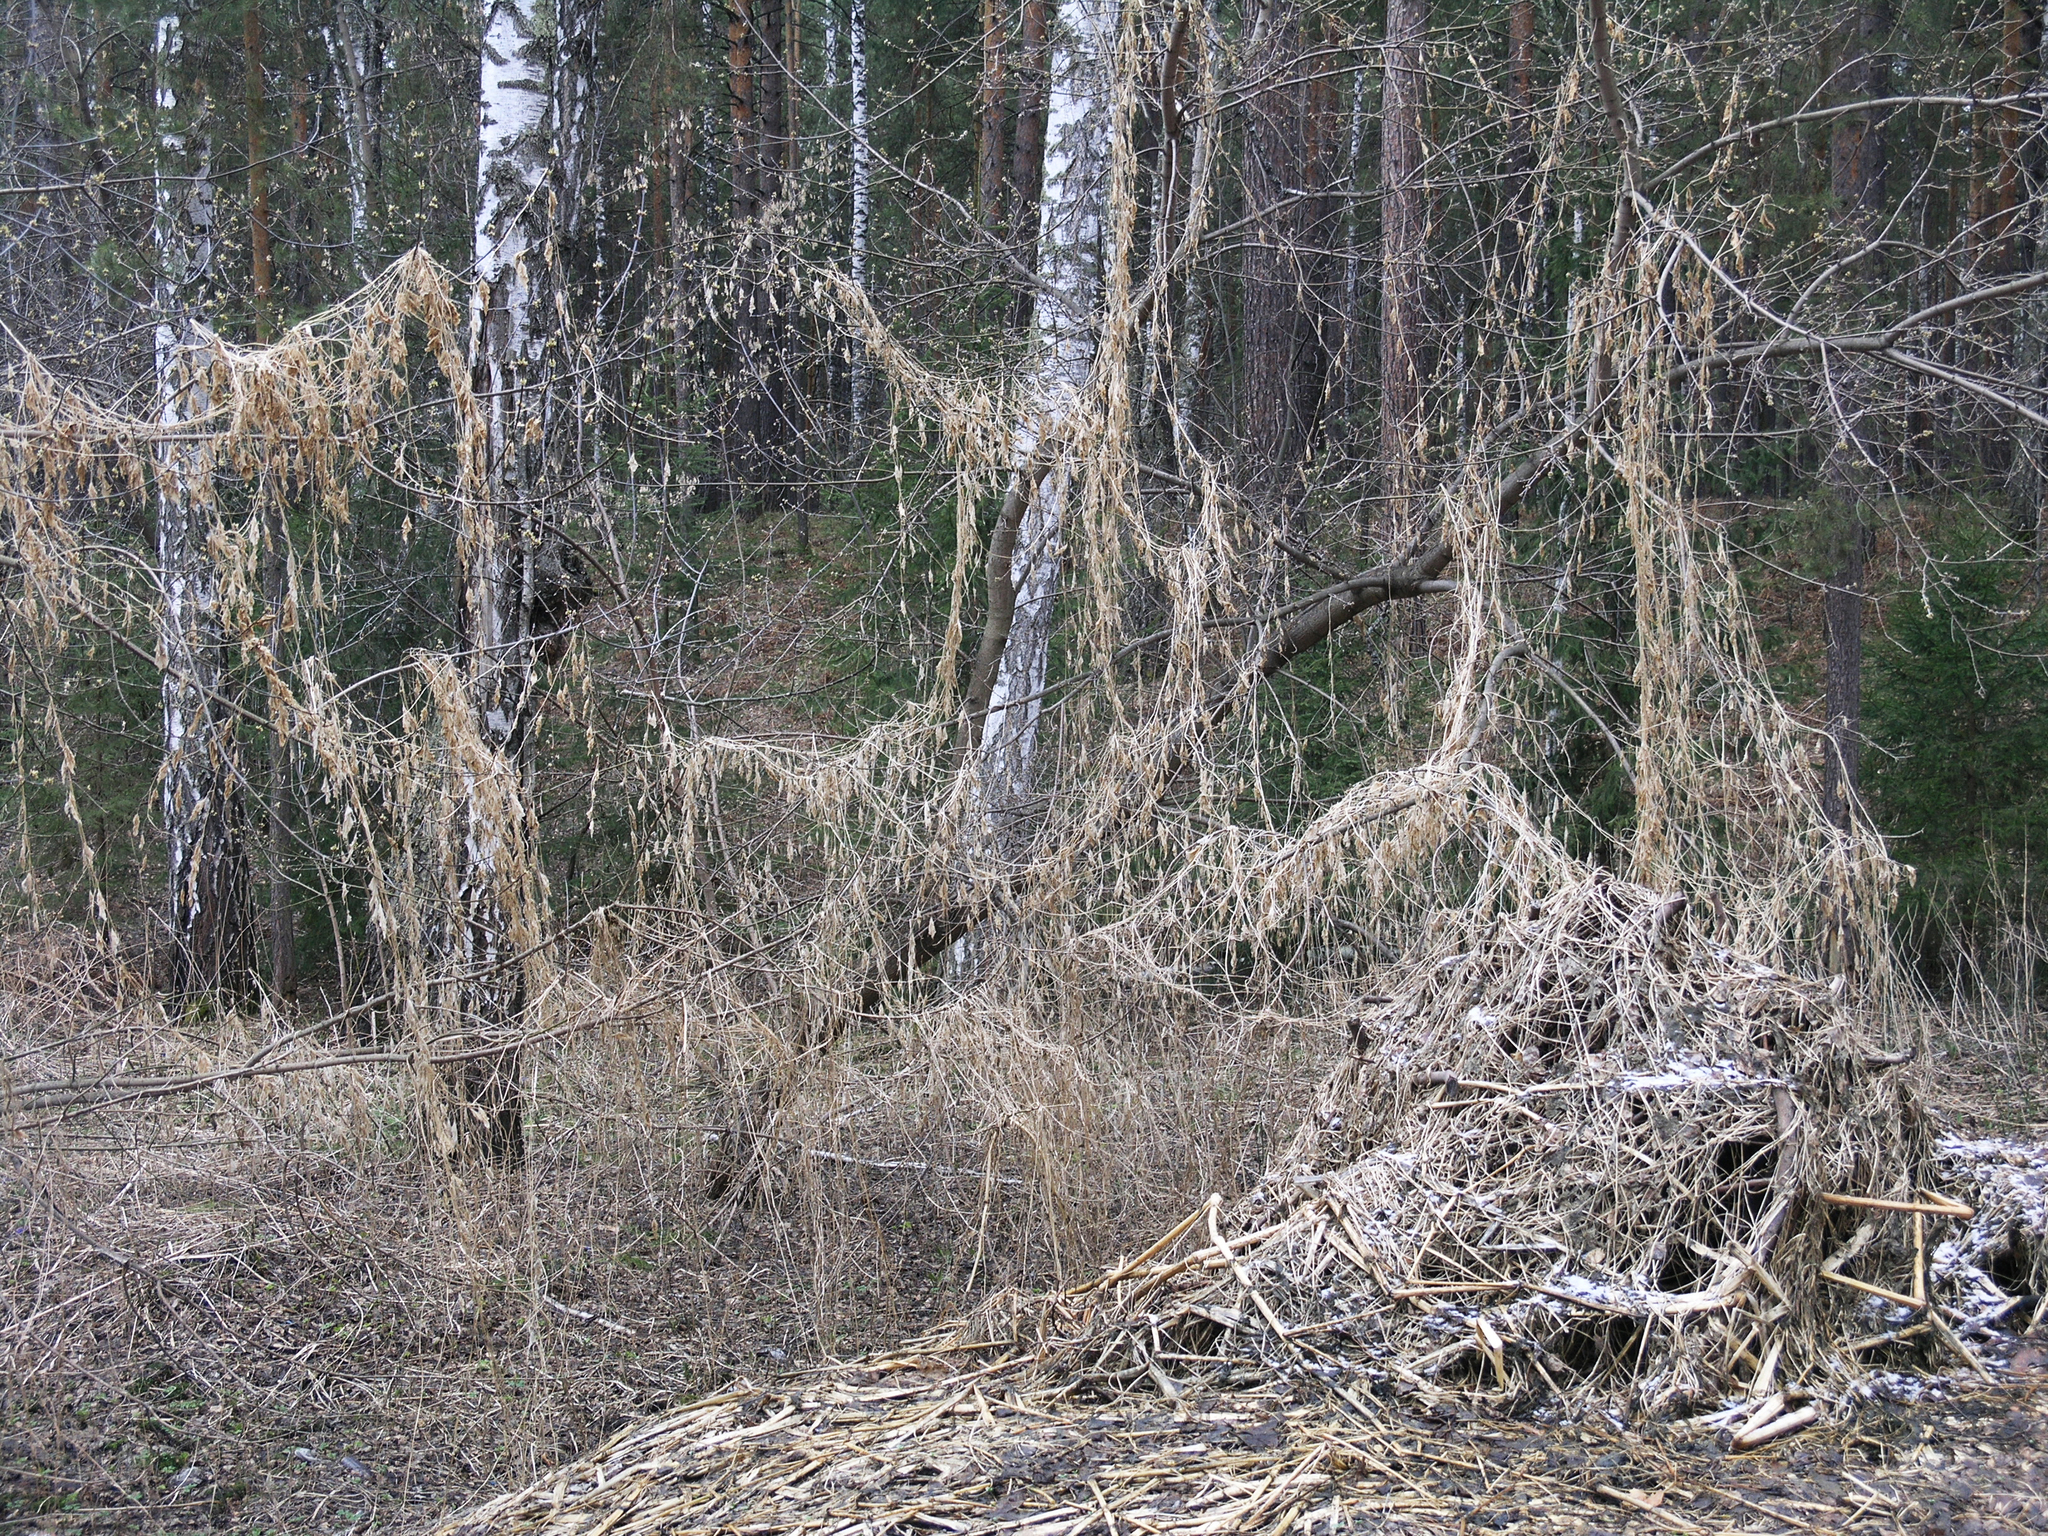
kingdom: Plantae
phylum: Tracheophyta
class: Magnoliopsida
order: Rosales
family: Cannabaceae
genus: Humulus
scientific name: Humulus lupulus
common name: Hop
